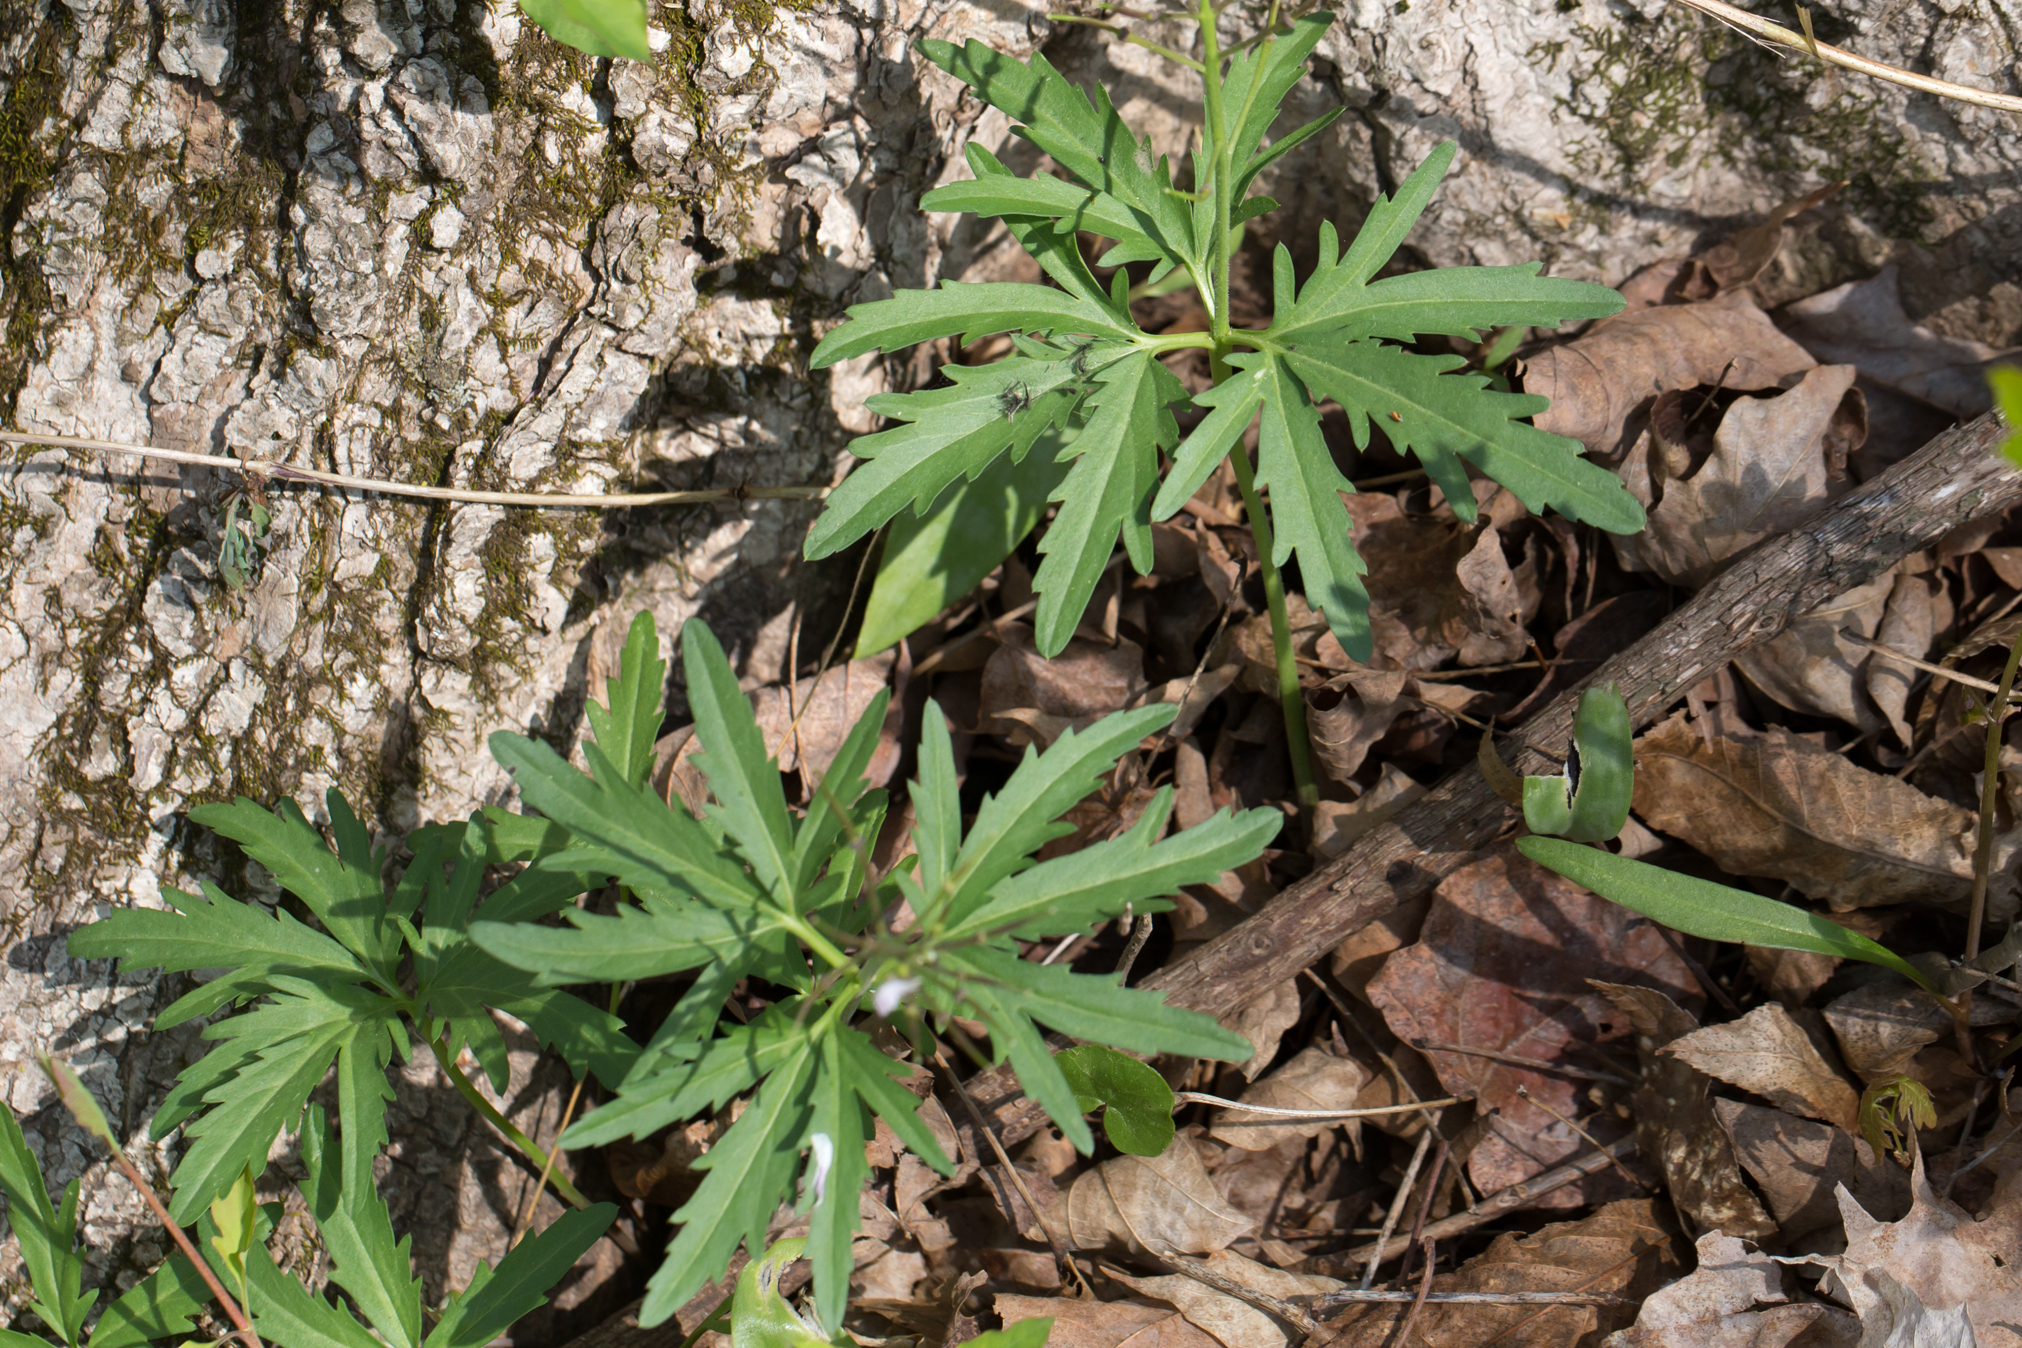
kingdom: Plantae
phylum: Tracheophyta
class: Magnoliopsida
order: Brassicales
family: Brassicaceae
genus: Cardamine
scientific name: Cardamine concatenata
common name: Cut-leaf toothcup
